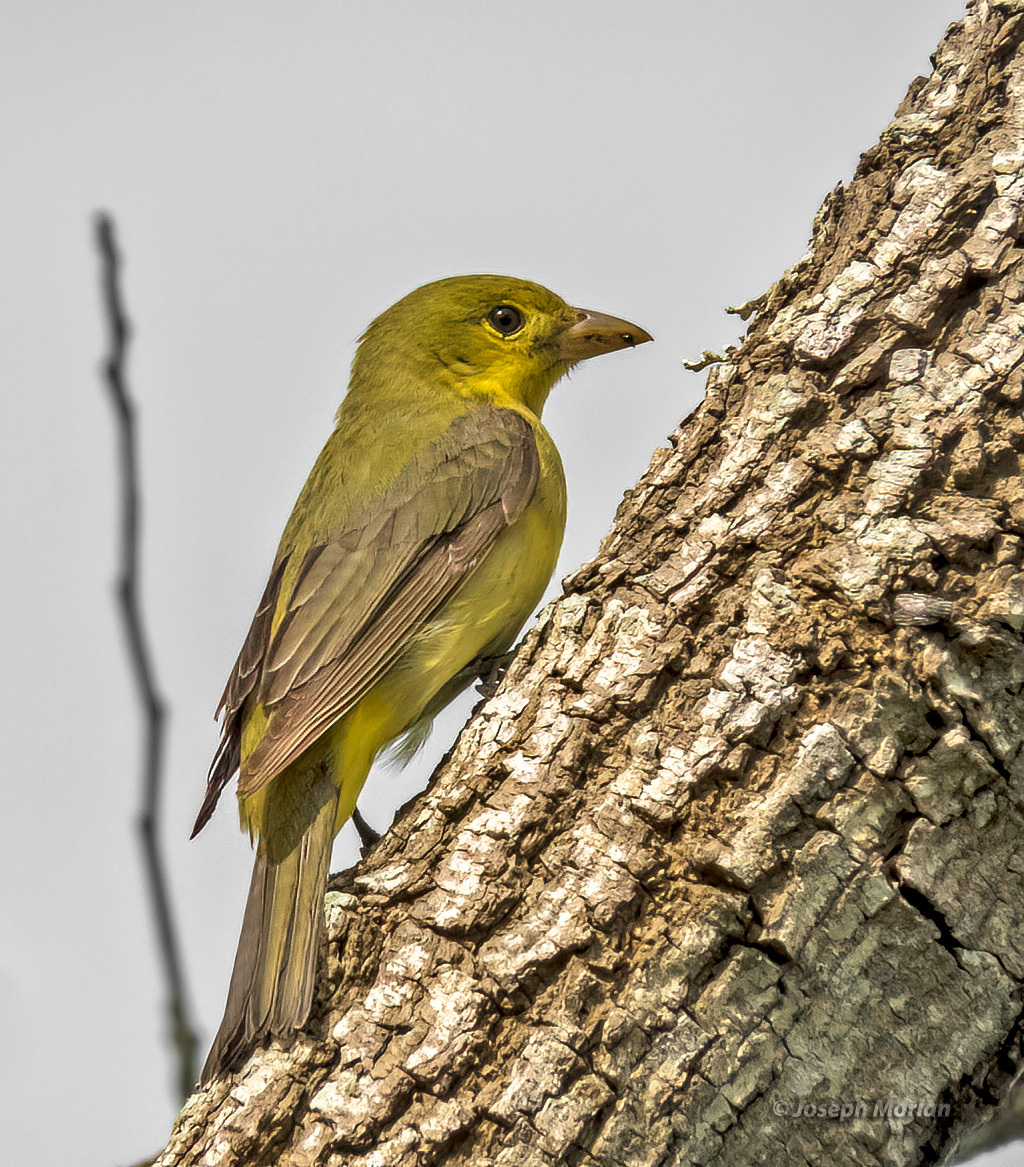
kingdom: Animalia
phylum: Chordata
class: Aves
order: Passeriformes
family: Cardinalidae
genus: Piranga
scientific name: Piranga olivacea
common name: Scarlet tanager
